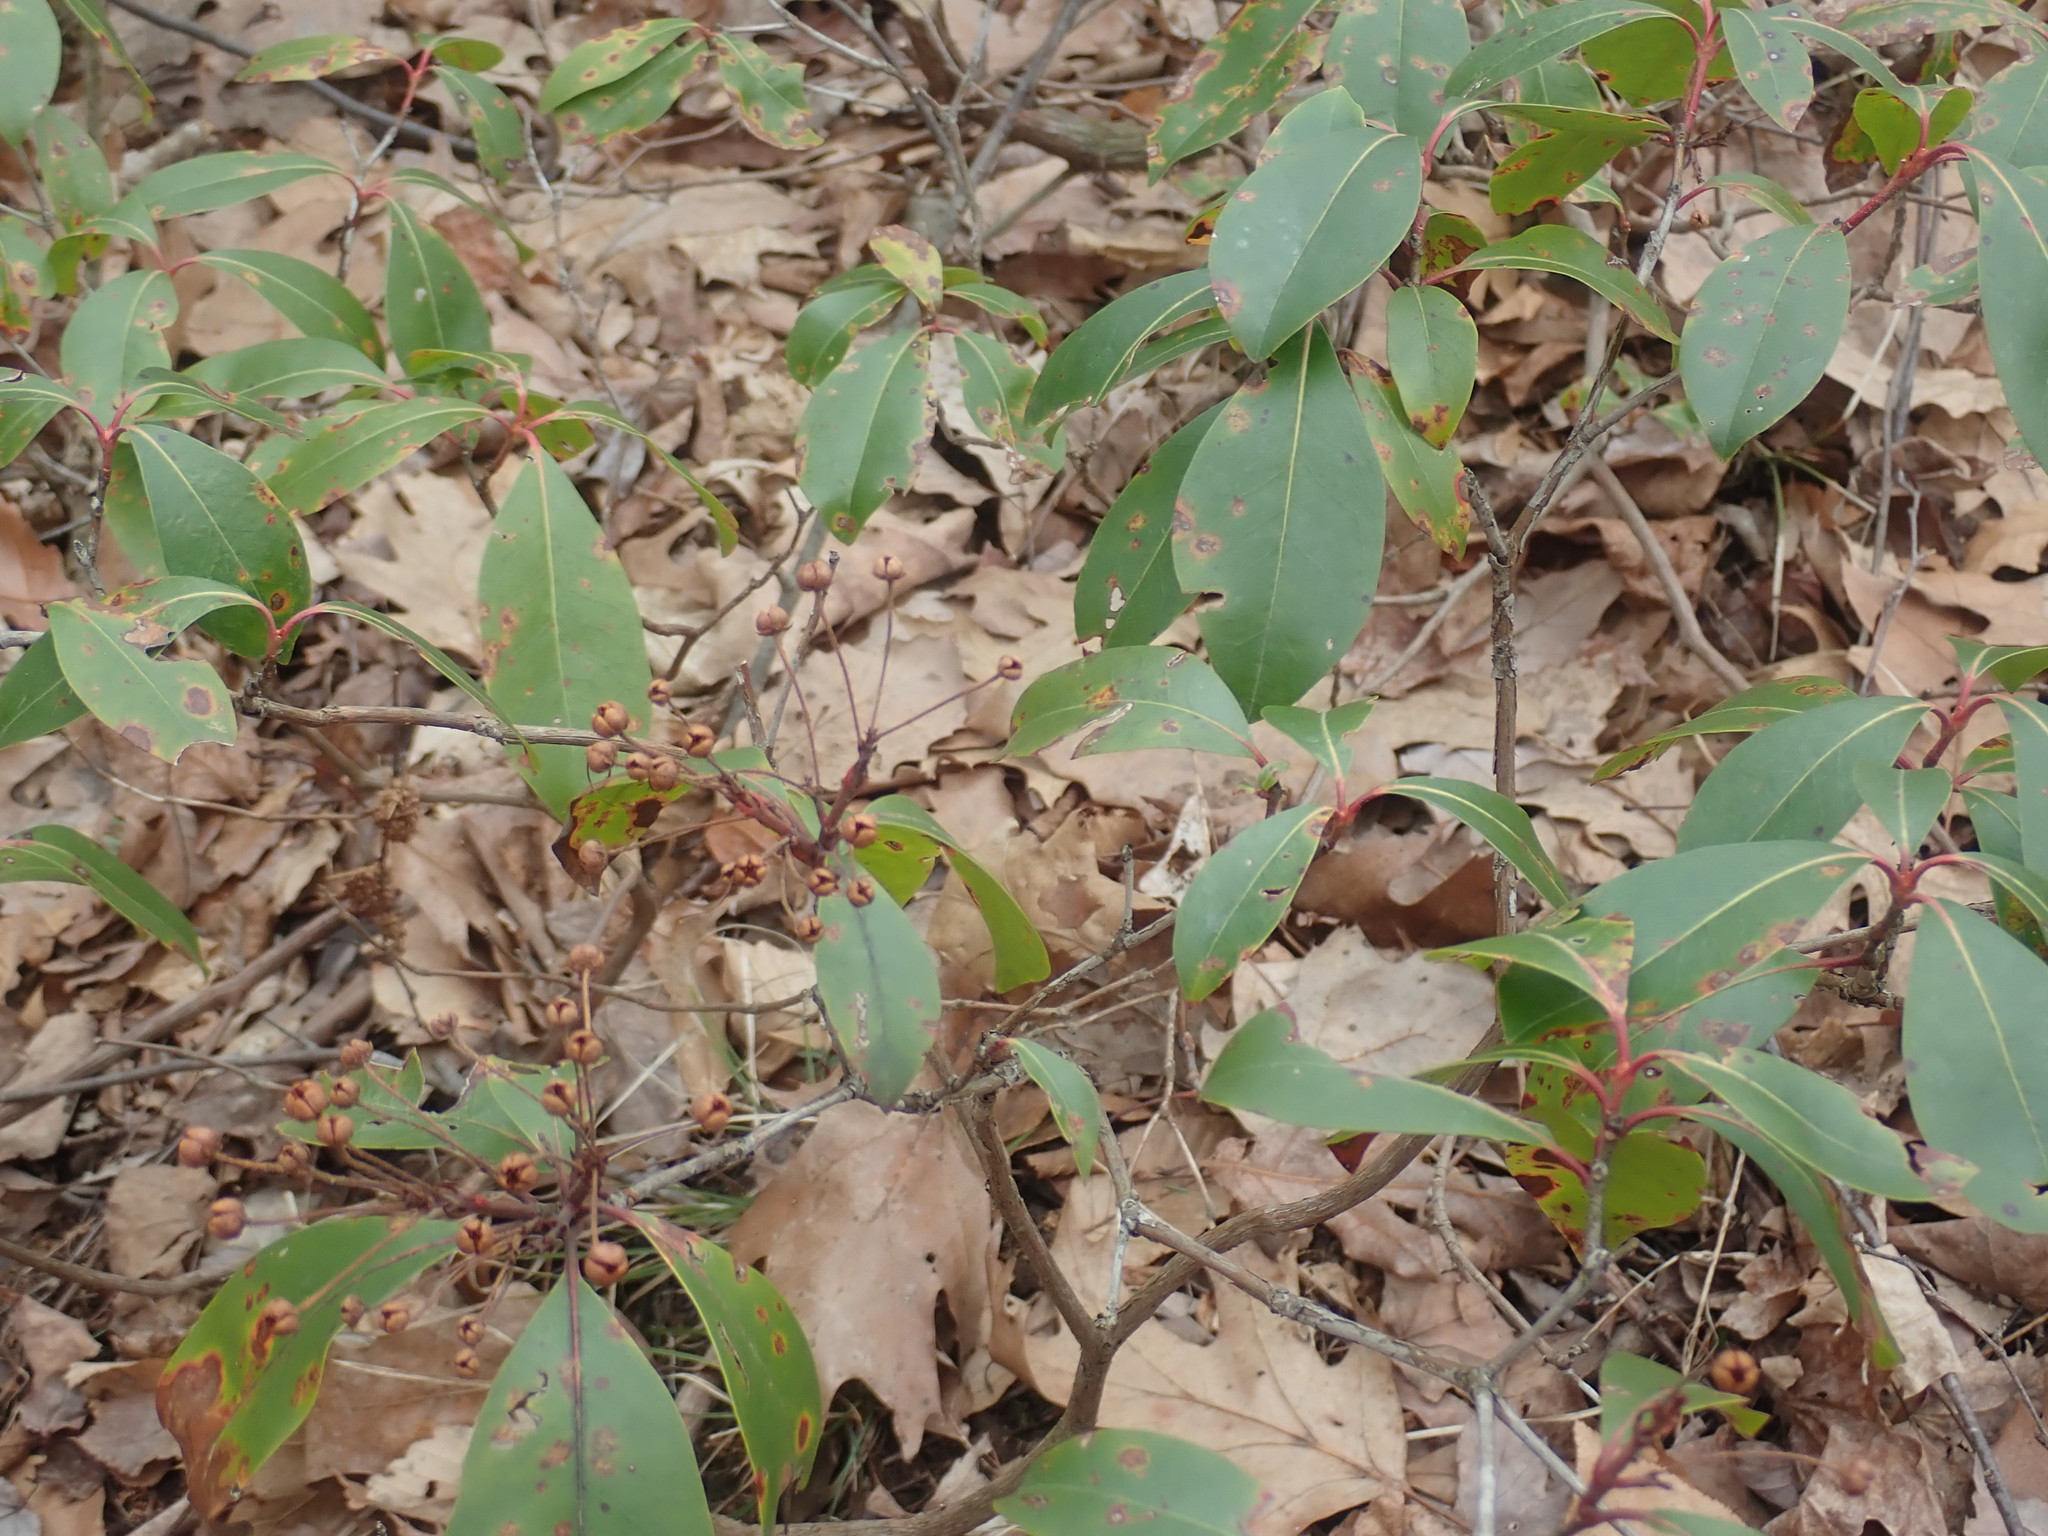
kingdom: Plantae
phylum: Tracheophyta
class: Magnoliopsida
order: Ericales
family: Ericaceae
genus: Kalmia
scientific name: Kalmia latifolia
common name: Mountain-laurel
